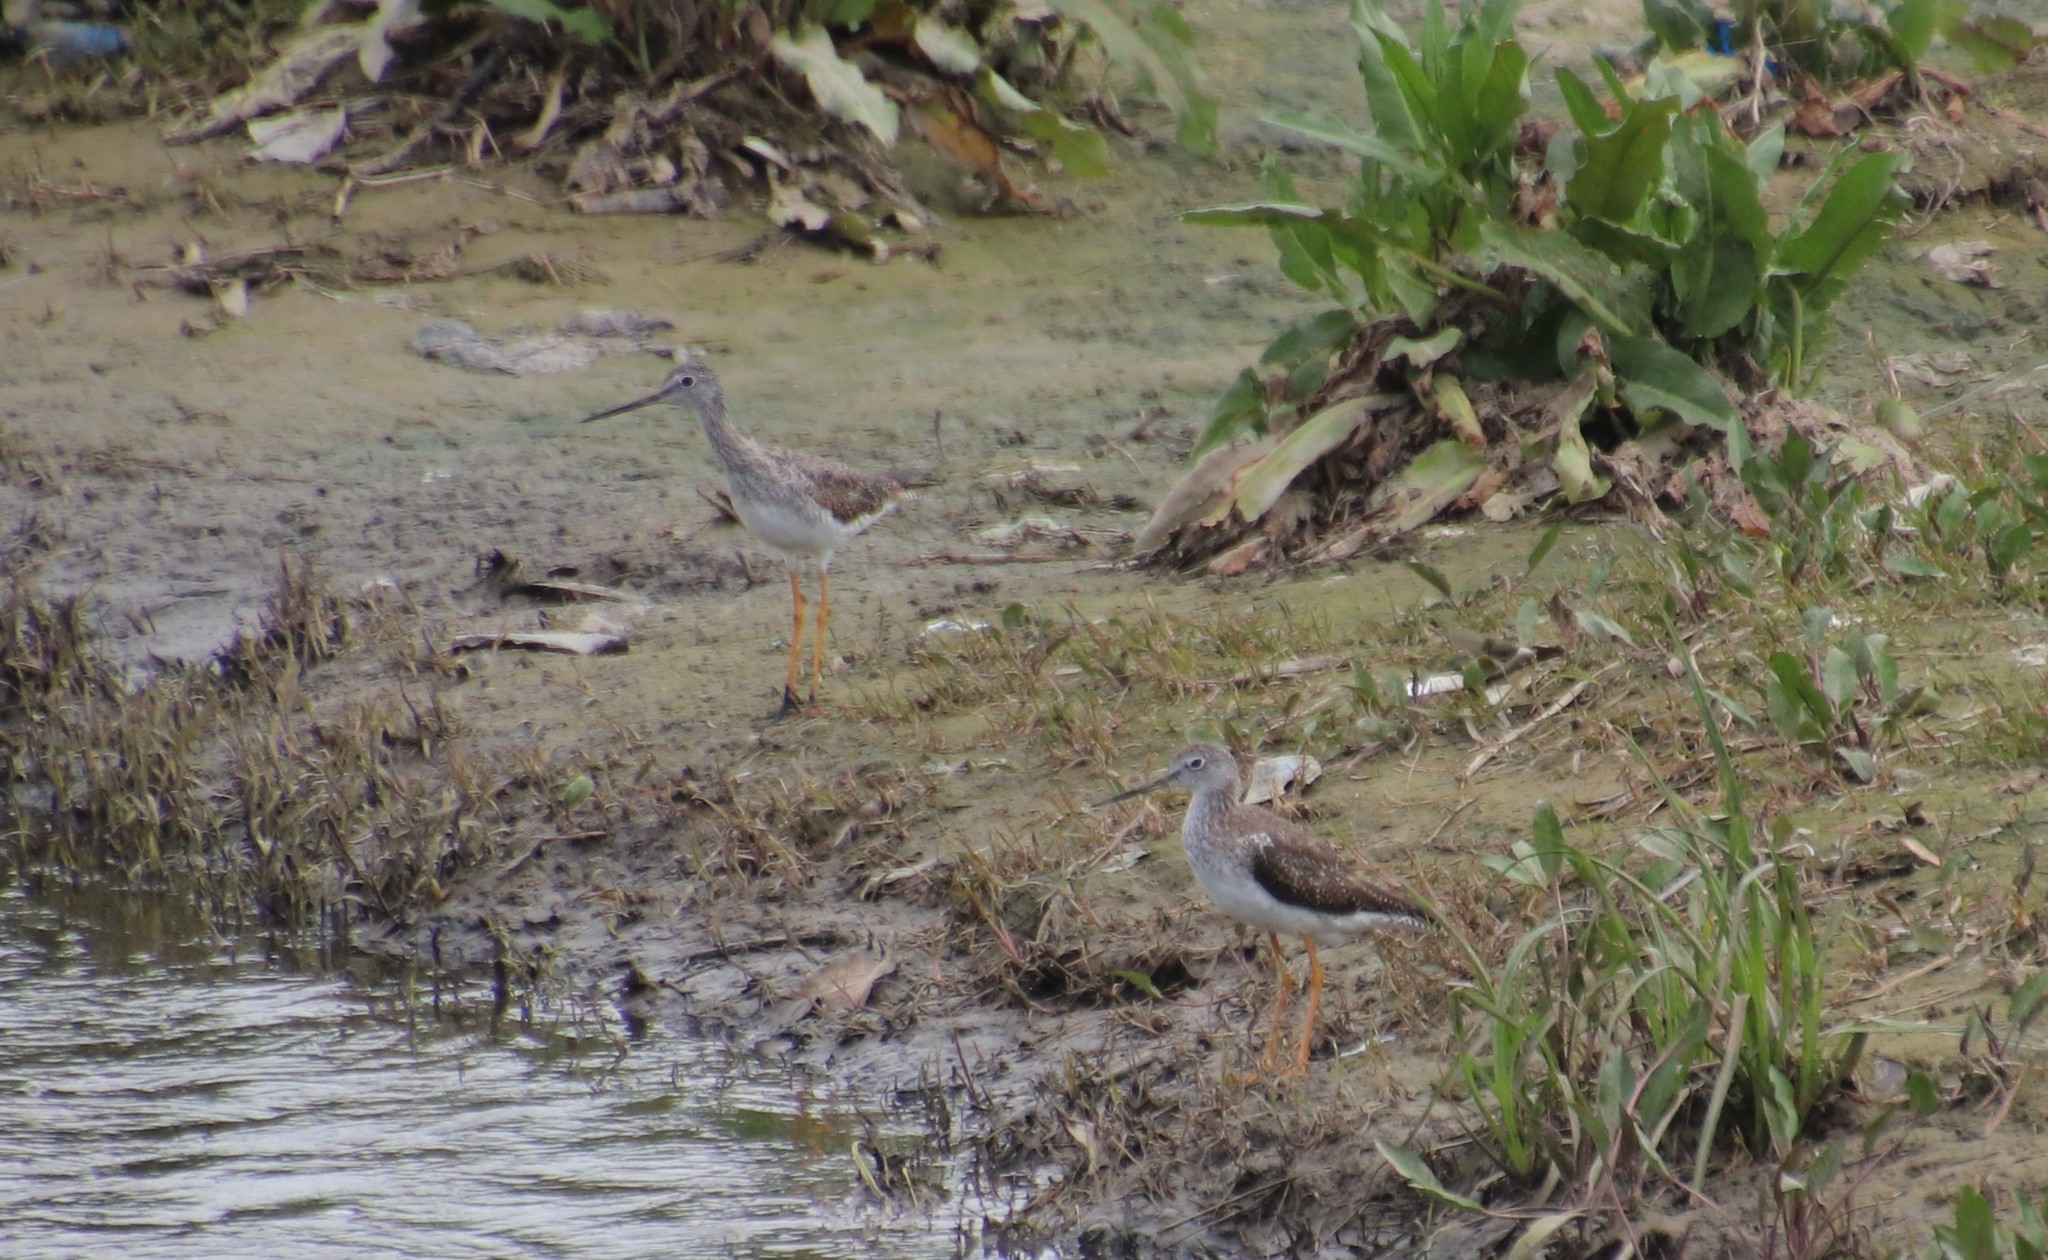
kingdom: Animalia
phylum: Chordata
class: Aves
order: Charadriiformes
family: Scolopacidae
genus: Tringa
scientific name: Tringa melanoleuca
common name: Greater yellowlegs
